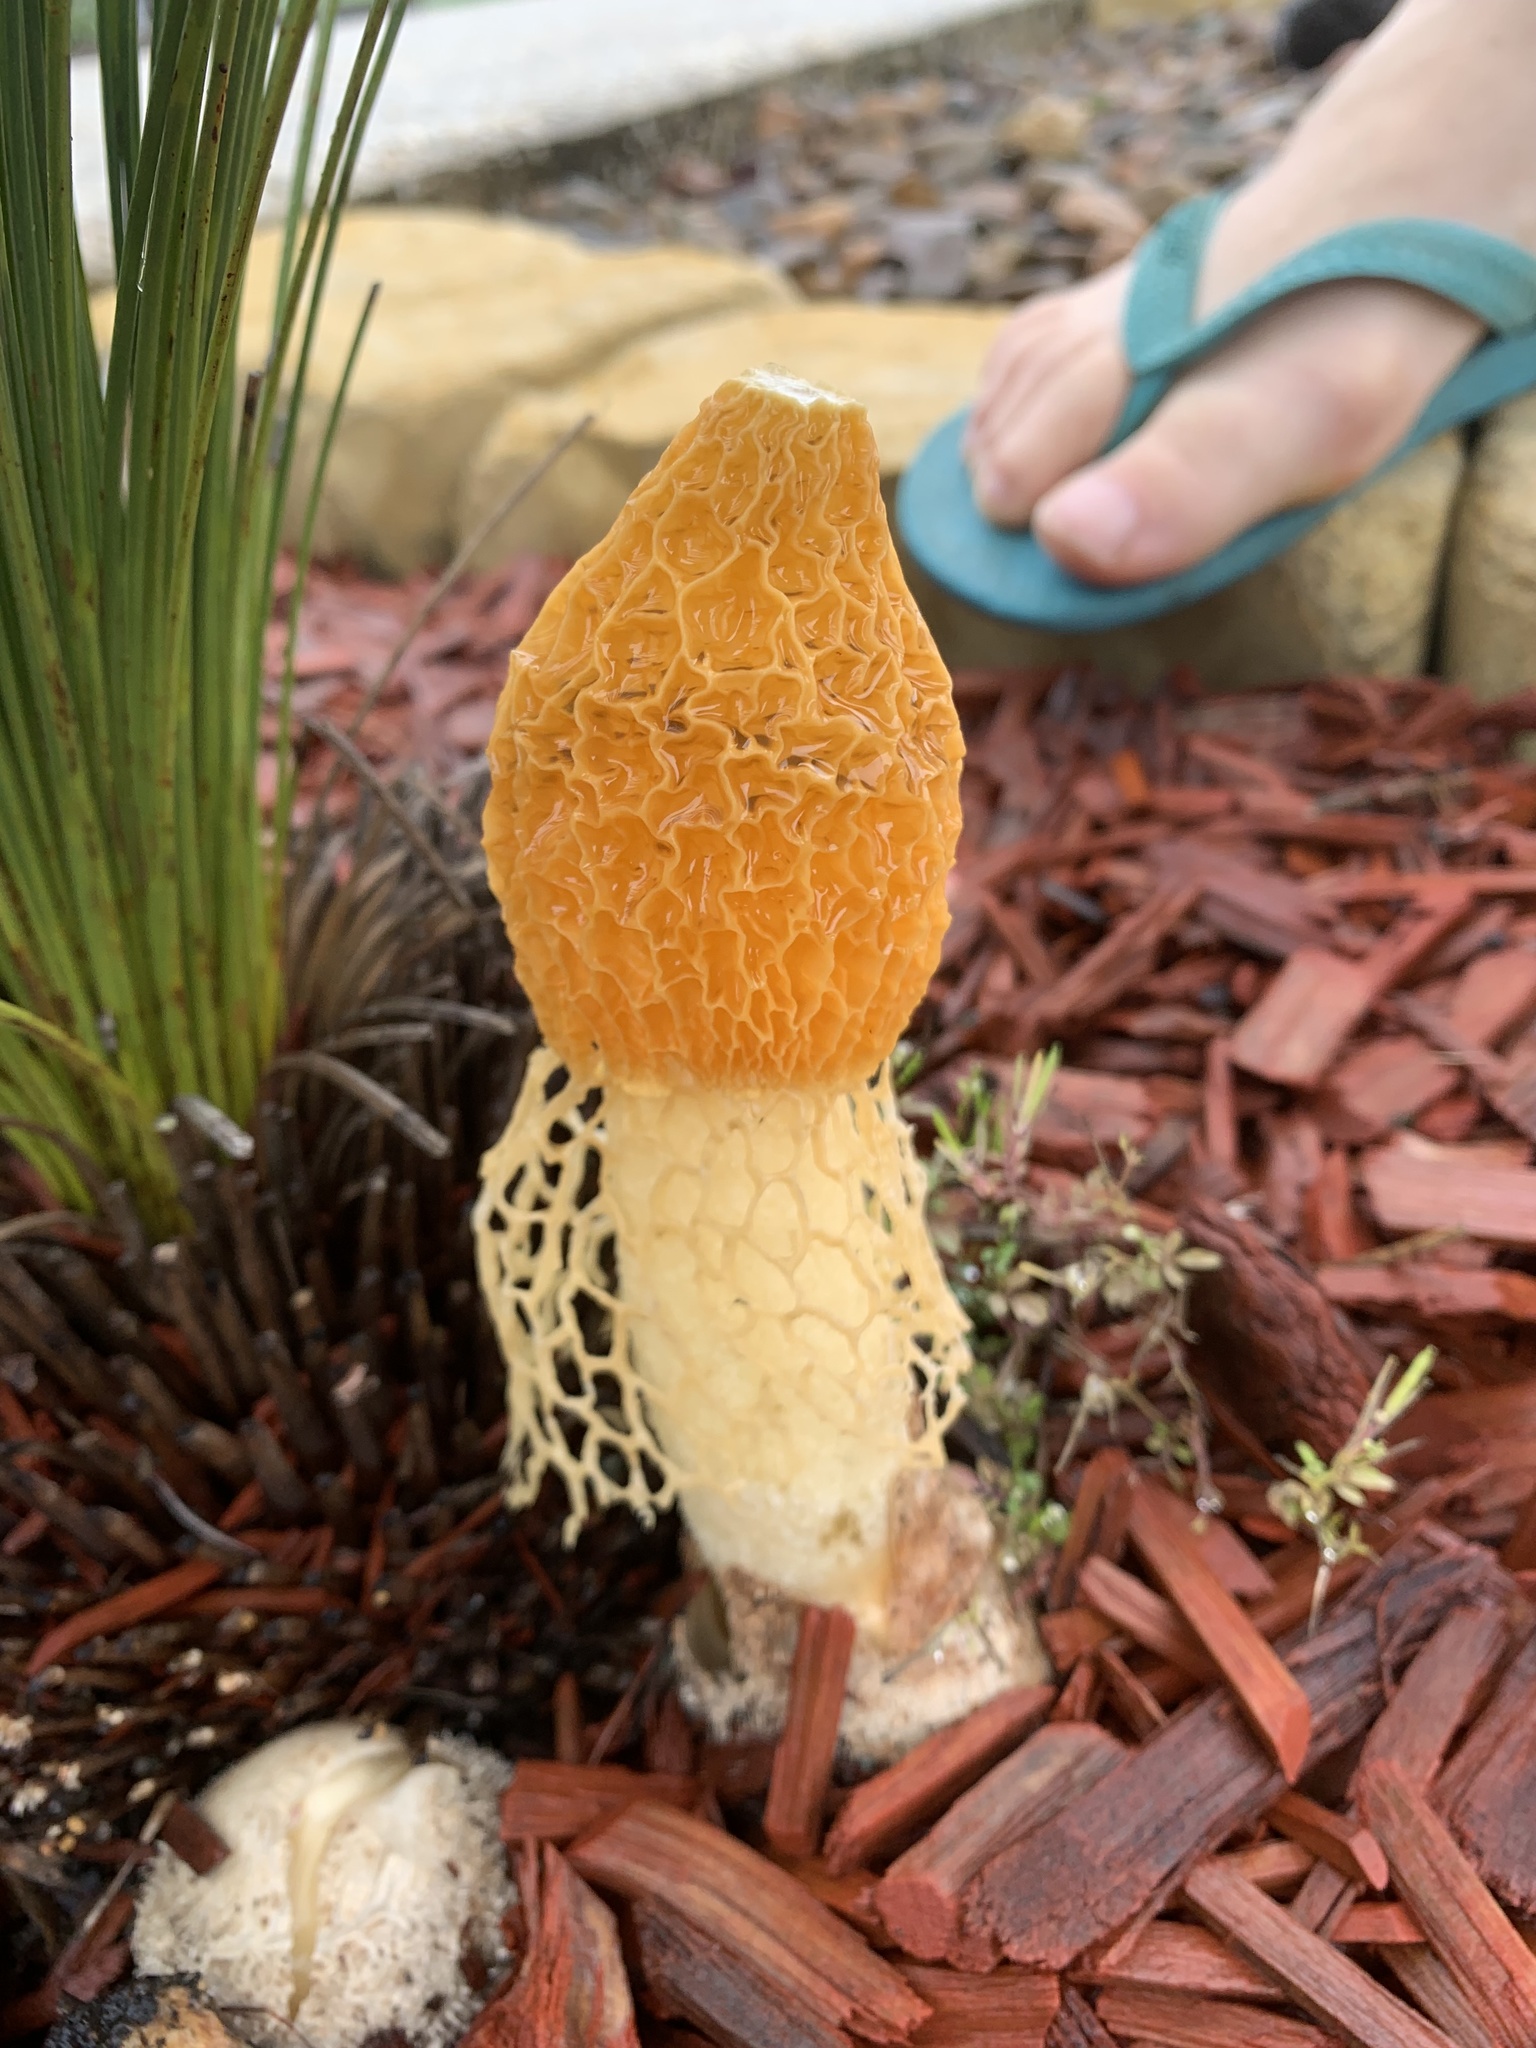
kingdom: Fungi
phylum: Basidiomycota
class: Agaricomycetes
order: Phallales
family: Phallaceae
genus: Phallus
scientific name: Phallus multicolor
